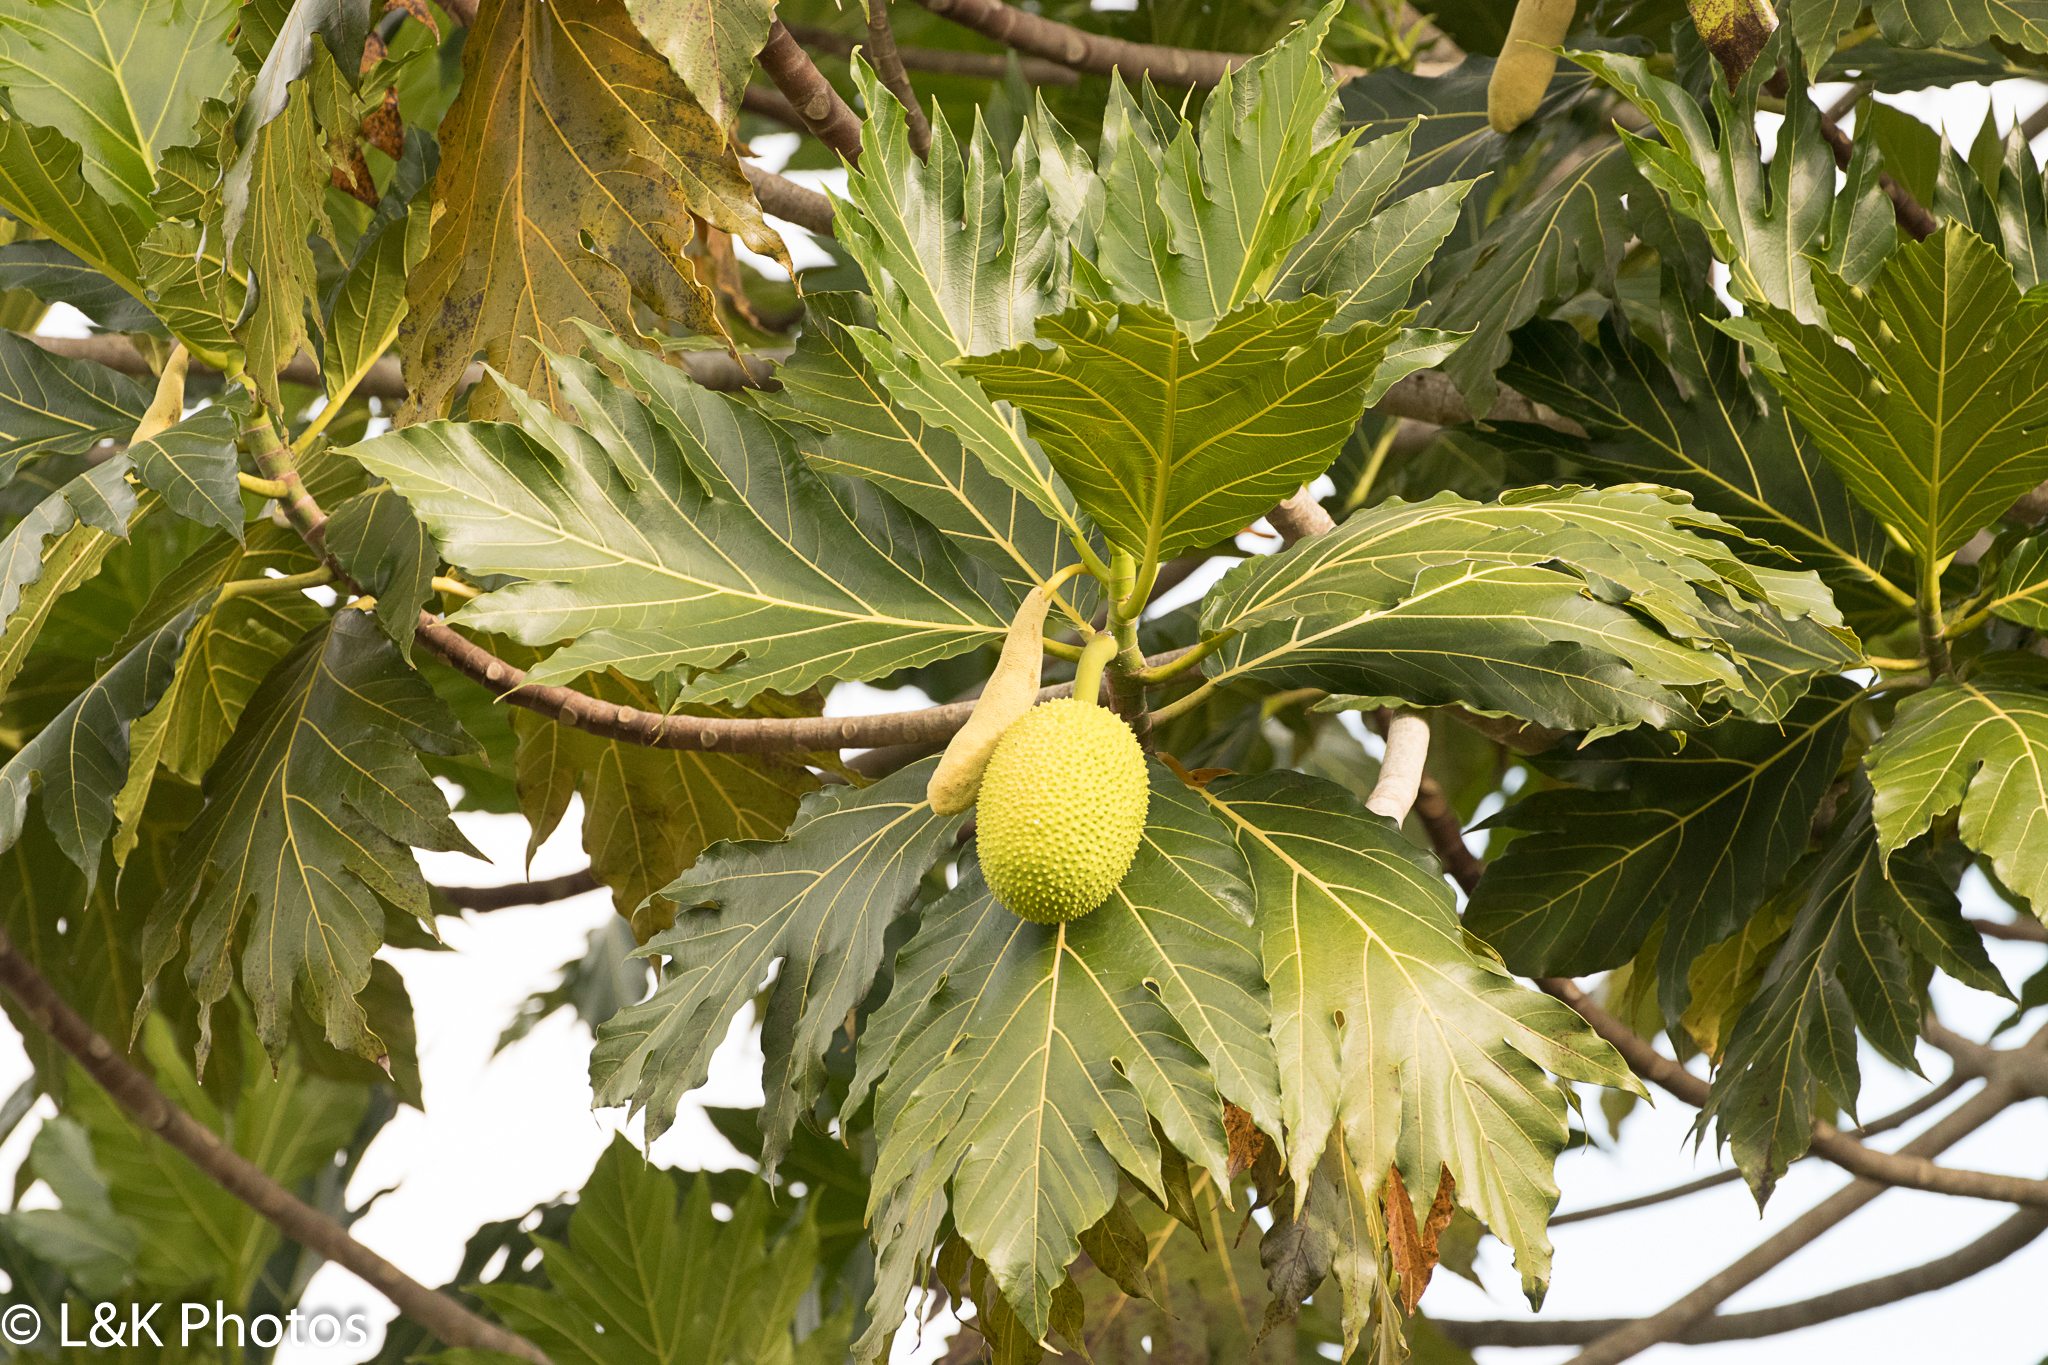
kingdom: Plantae
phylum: Tracheophyta
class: Magnoliopsida
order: Rosales
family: Moraceae
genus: Artocarpus
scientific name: Artocarpus altilis
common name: Breadfruit
